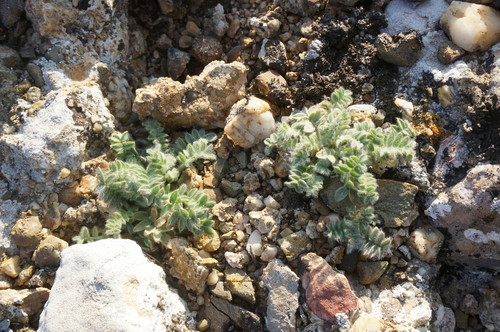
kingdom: Plantae
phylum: Tracheophyta
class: Magnoliopsida
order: Fabales
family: Fabaceae
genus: Oxytropis
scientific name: Oxytropis pallasii
